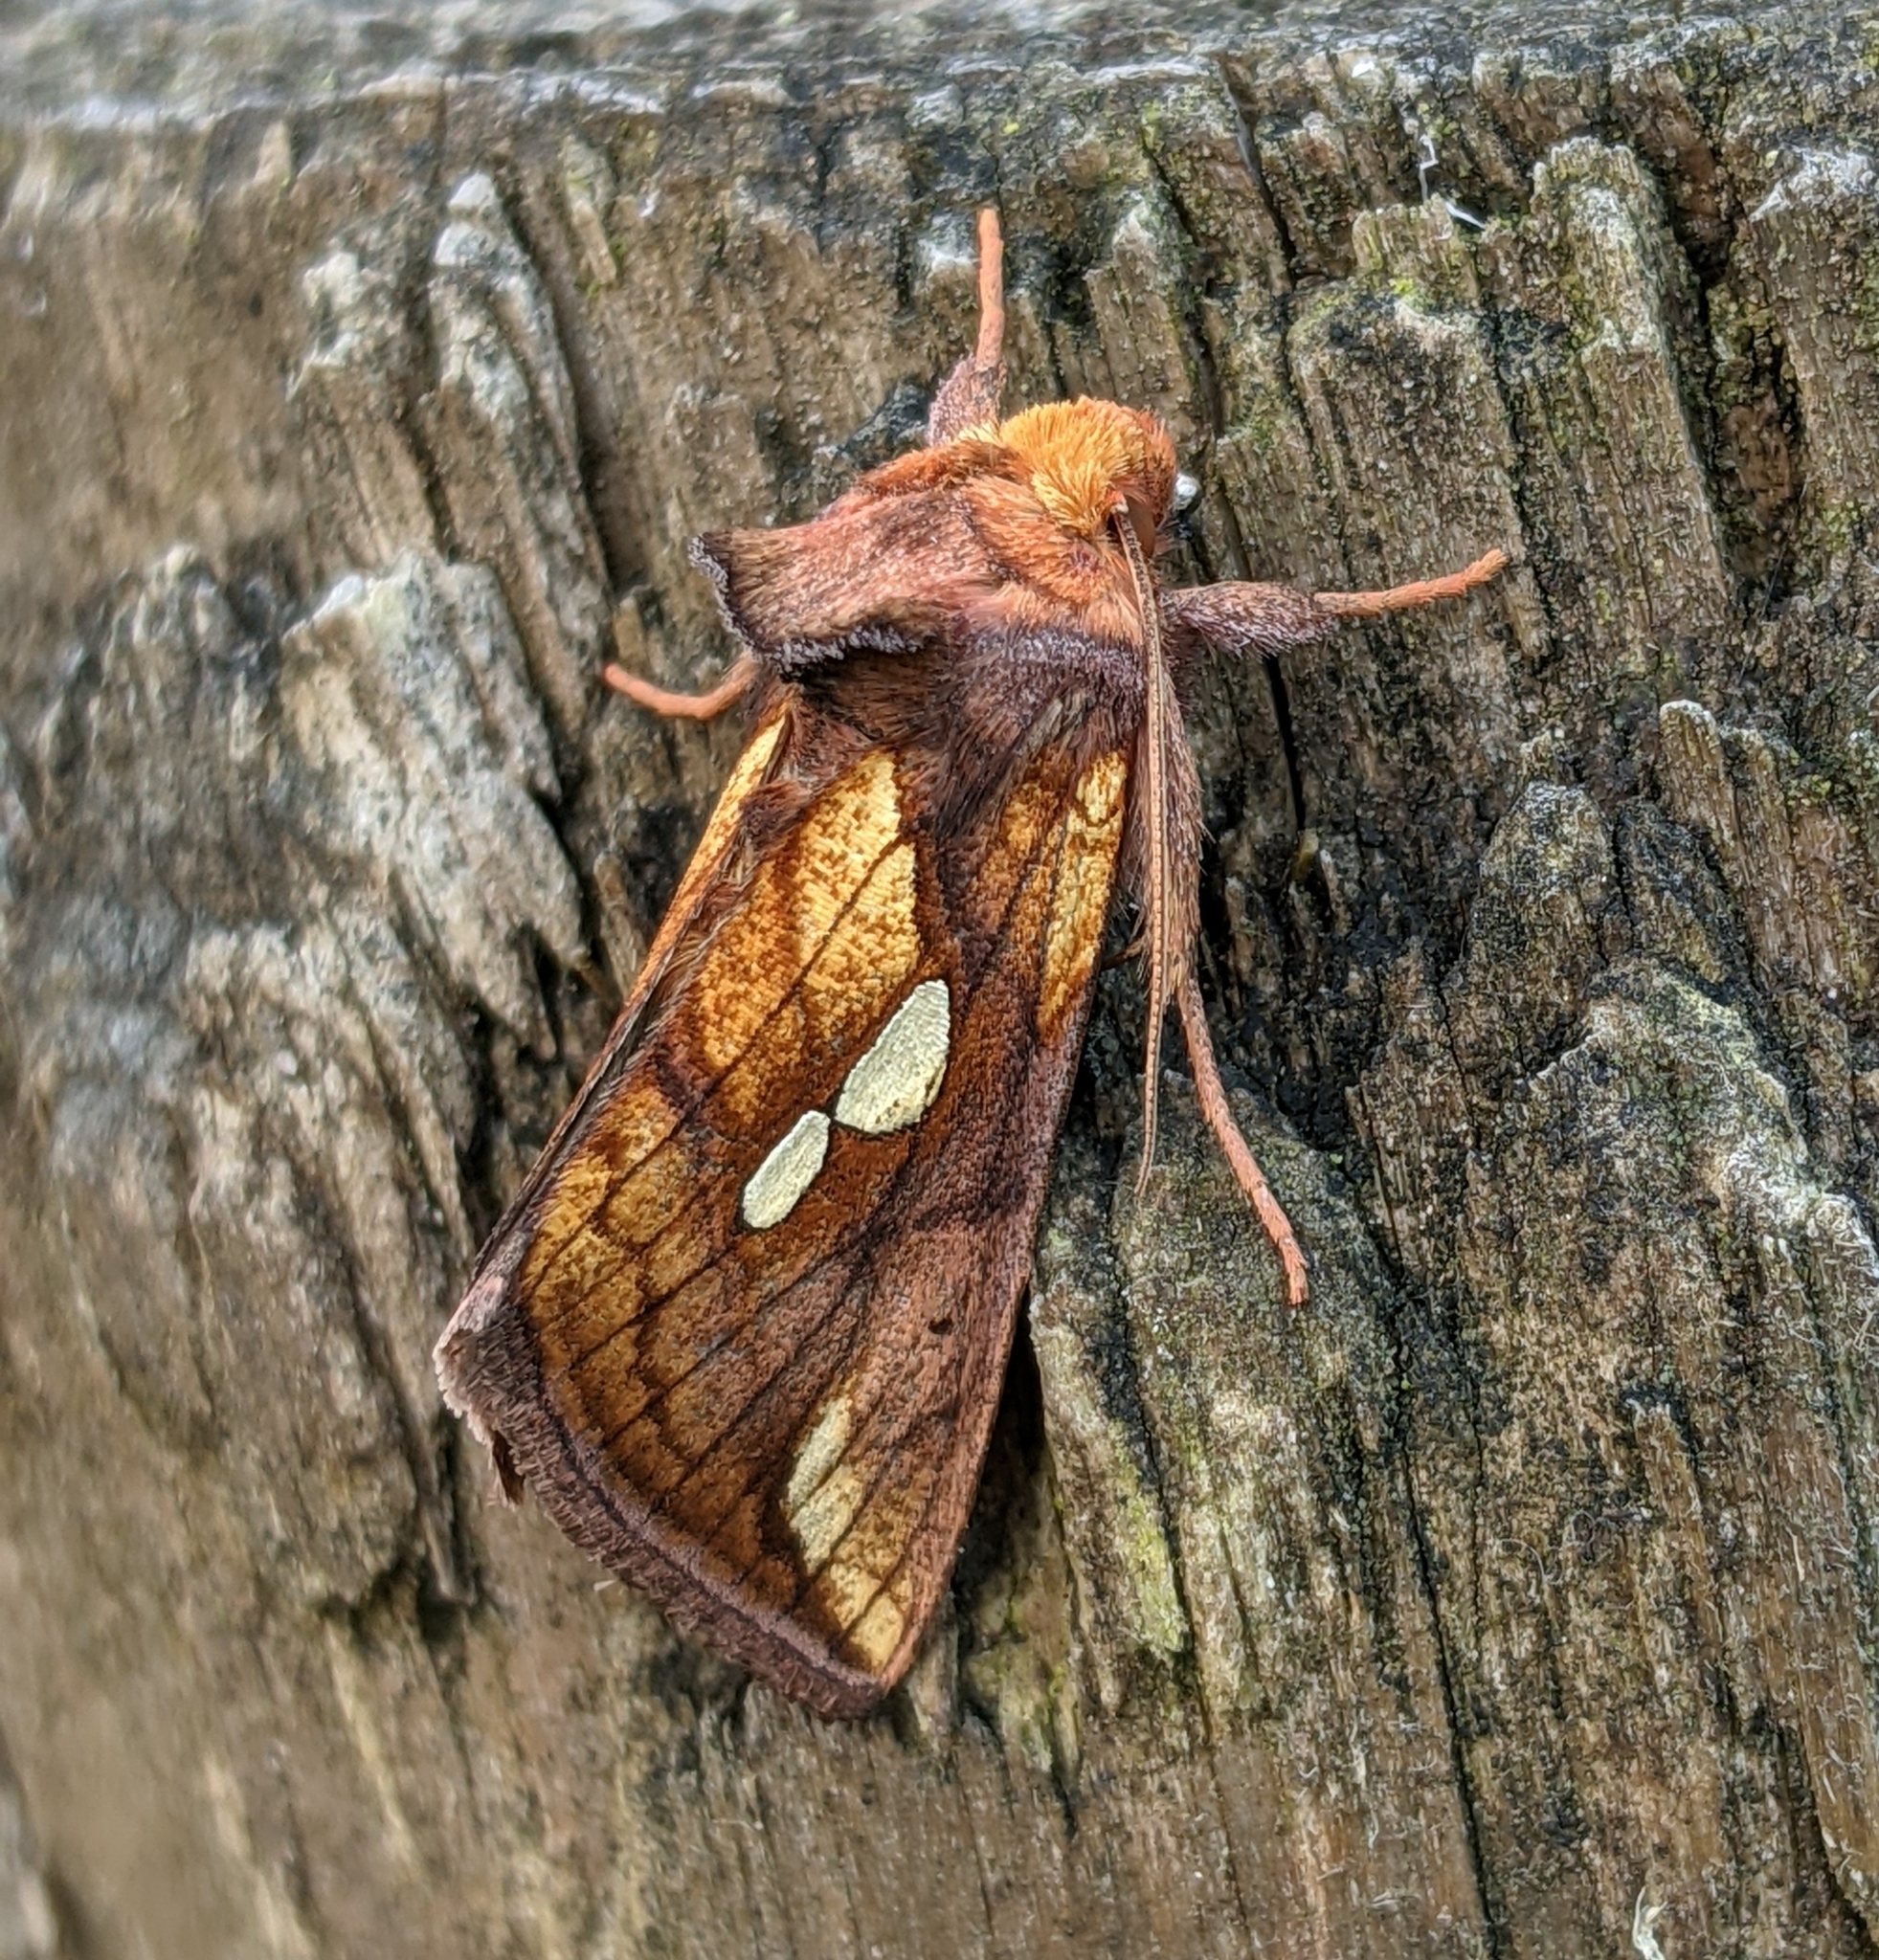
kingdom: Animalia
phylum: Arthropoda
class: Insecta
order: Lepidoptera
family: Noctuidae
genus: Plusia
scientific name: Plusia nichollae
